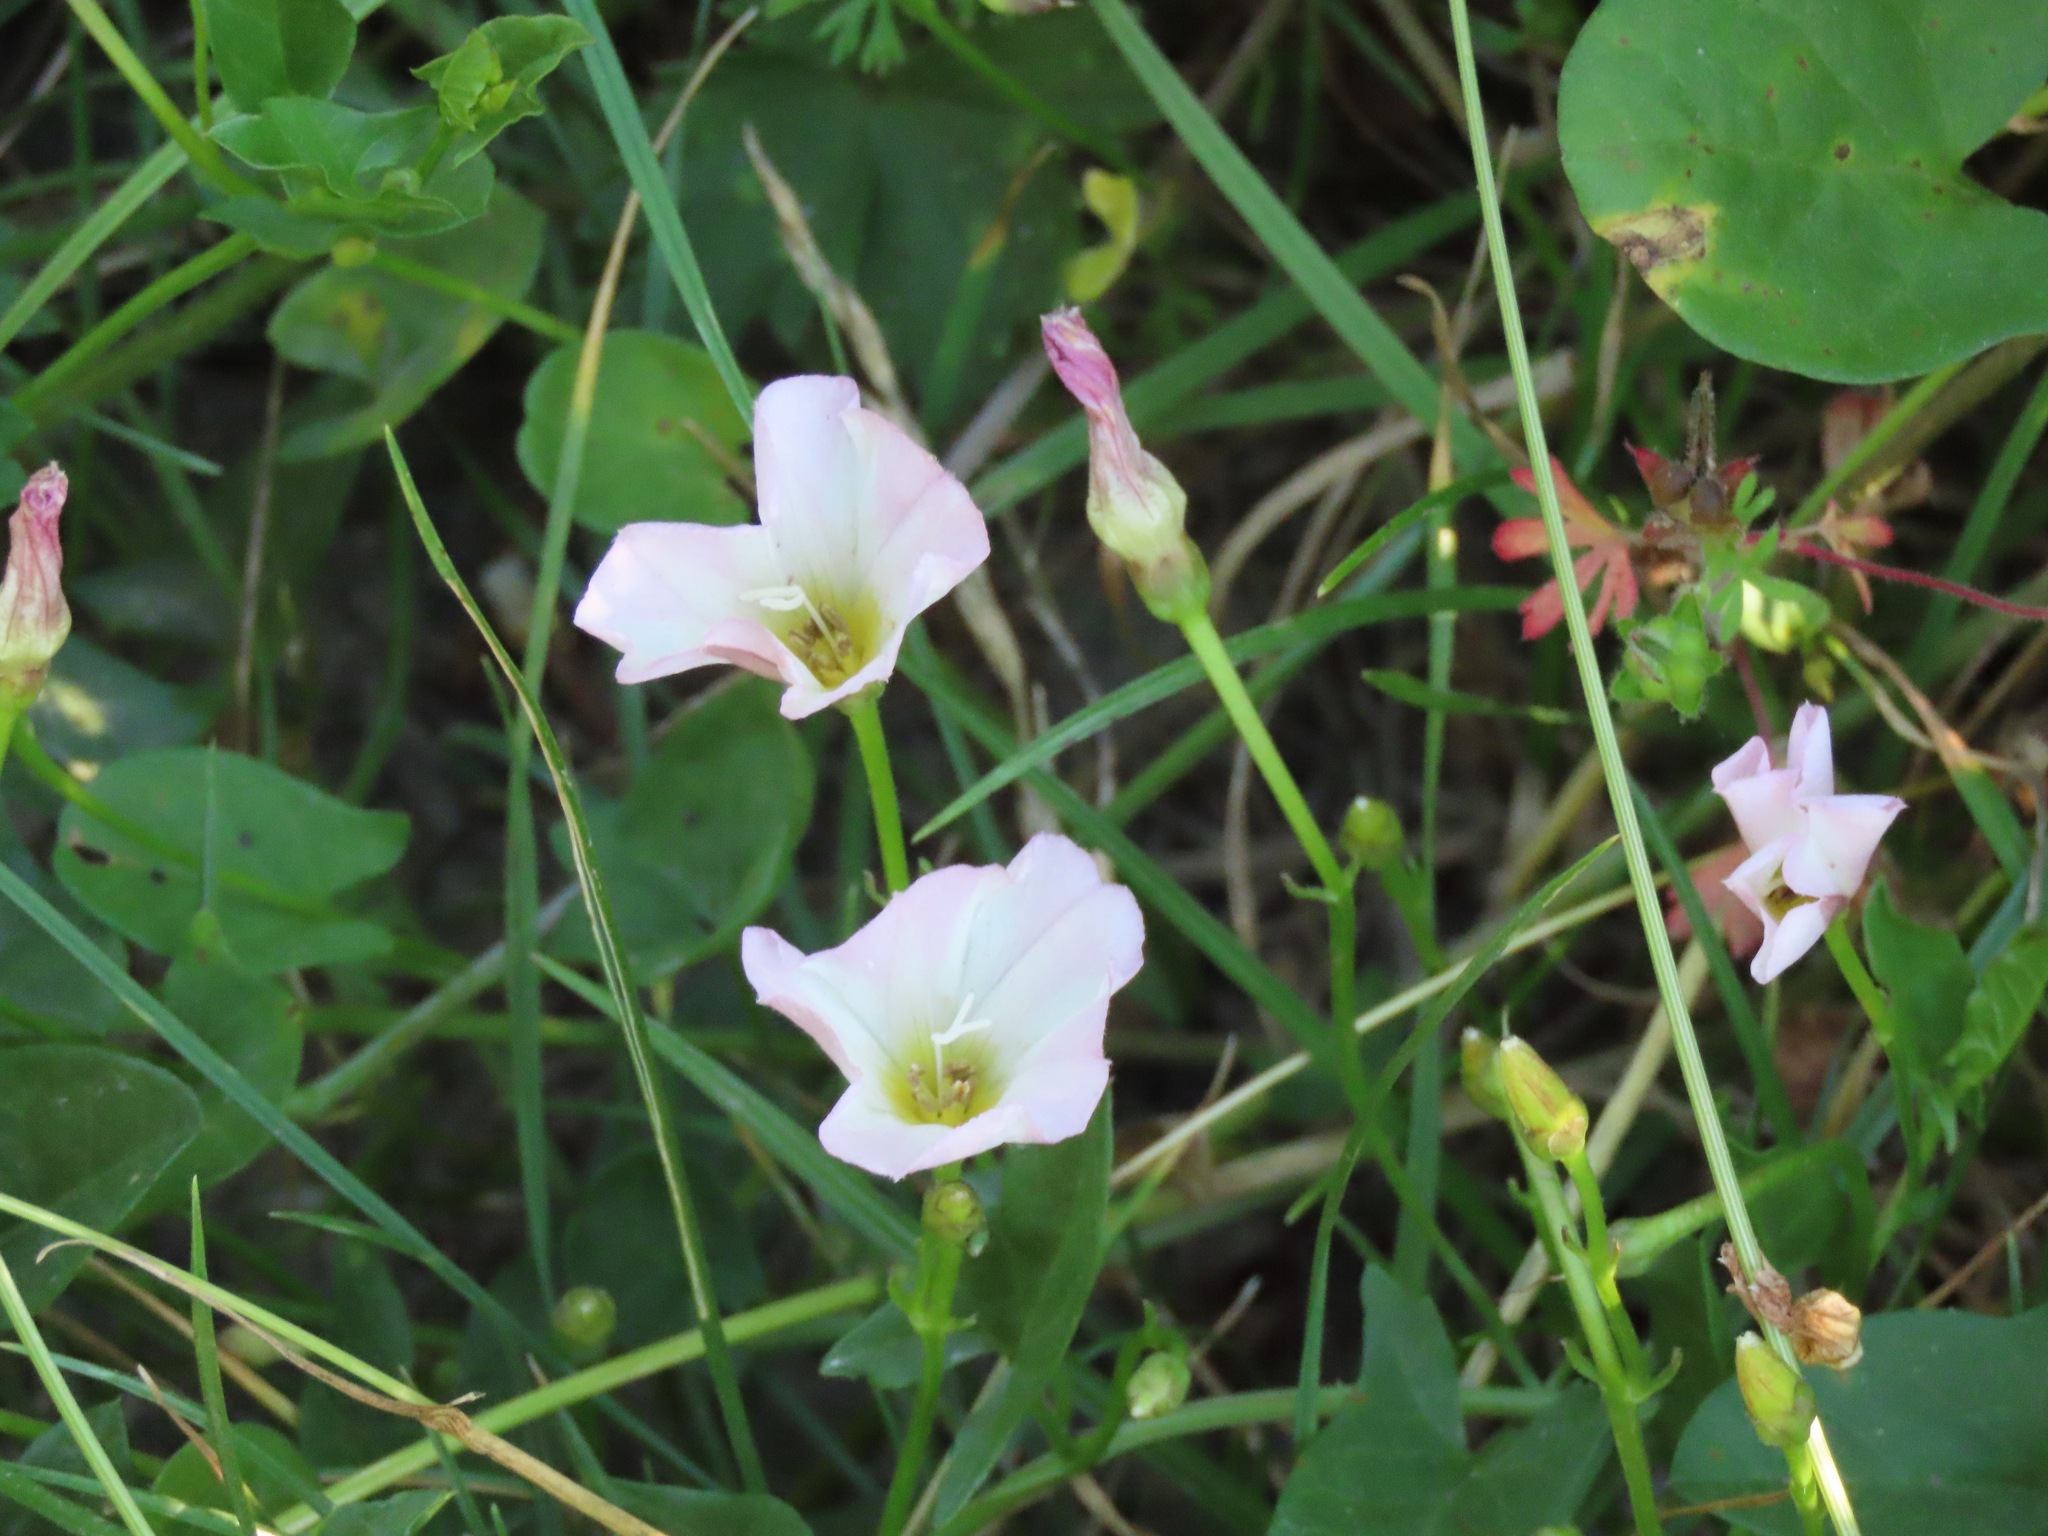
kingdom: Plantae
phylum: Tracheophyta
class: Magnoliopsida
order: Solanales
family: Convolvulaceae
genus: Convolvulus
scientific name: Convolvulus arvensis
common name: Field bindweed
